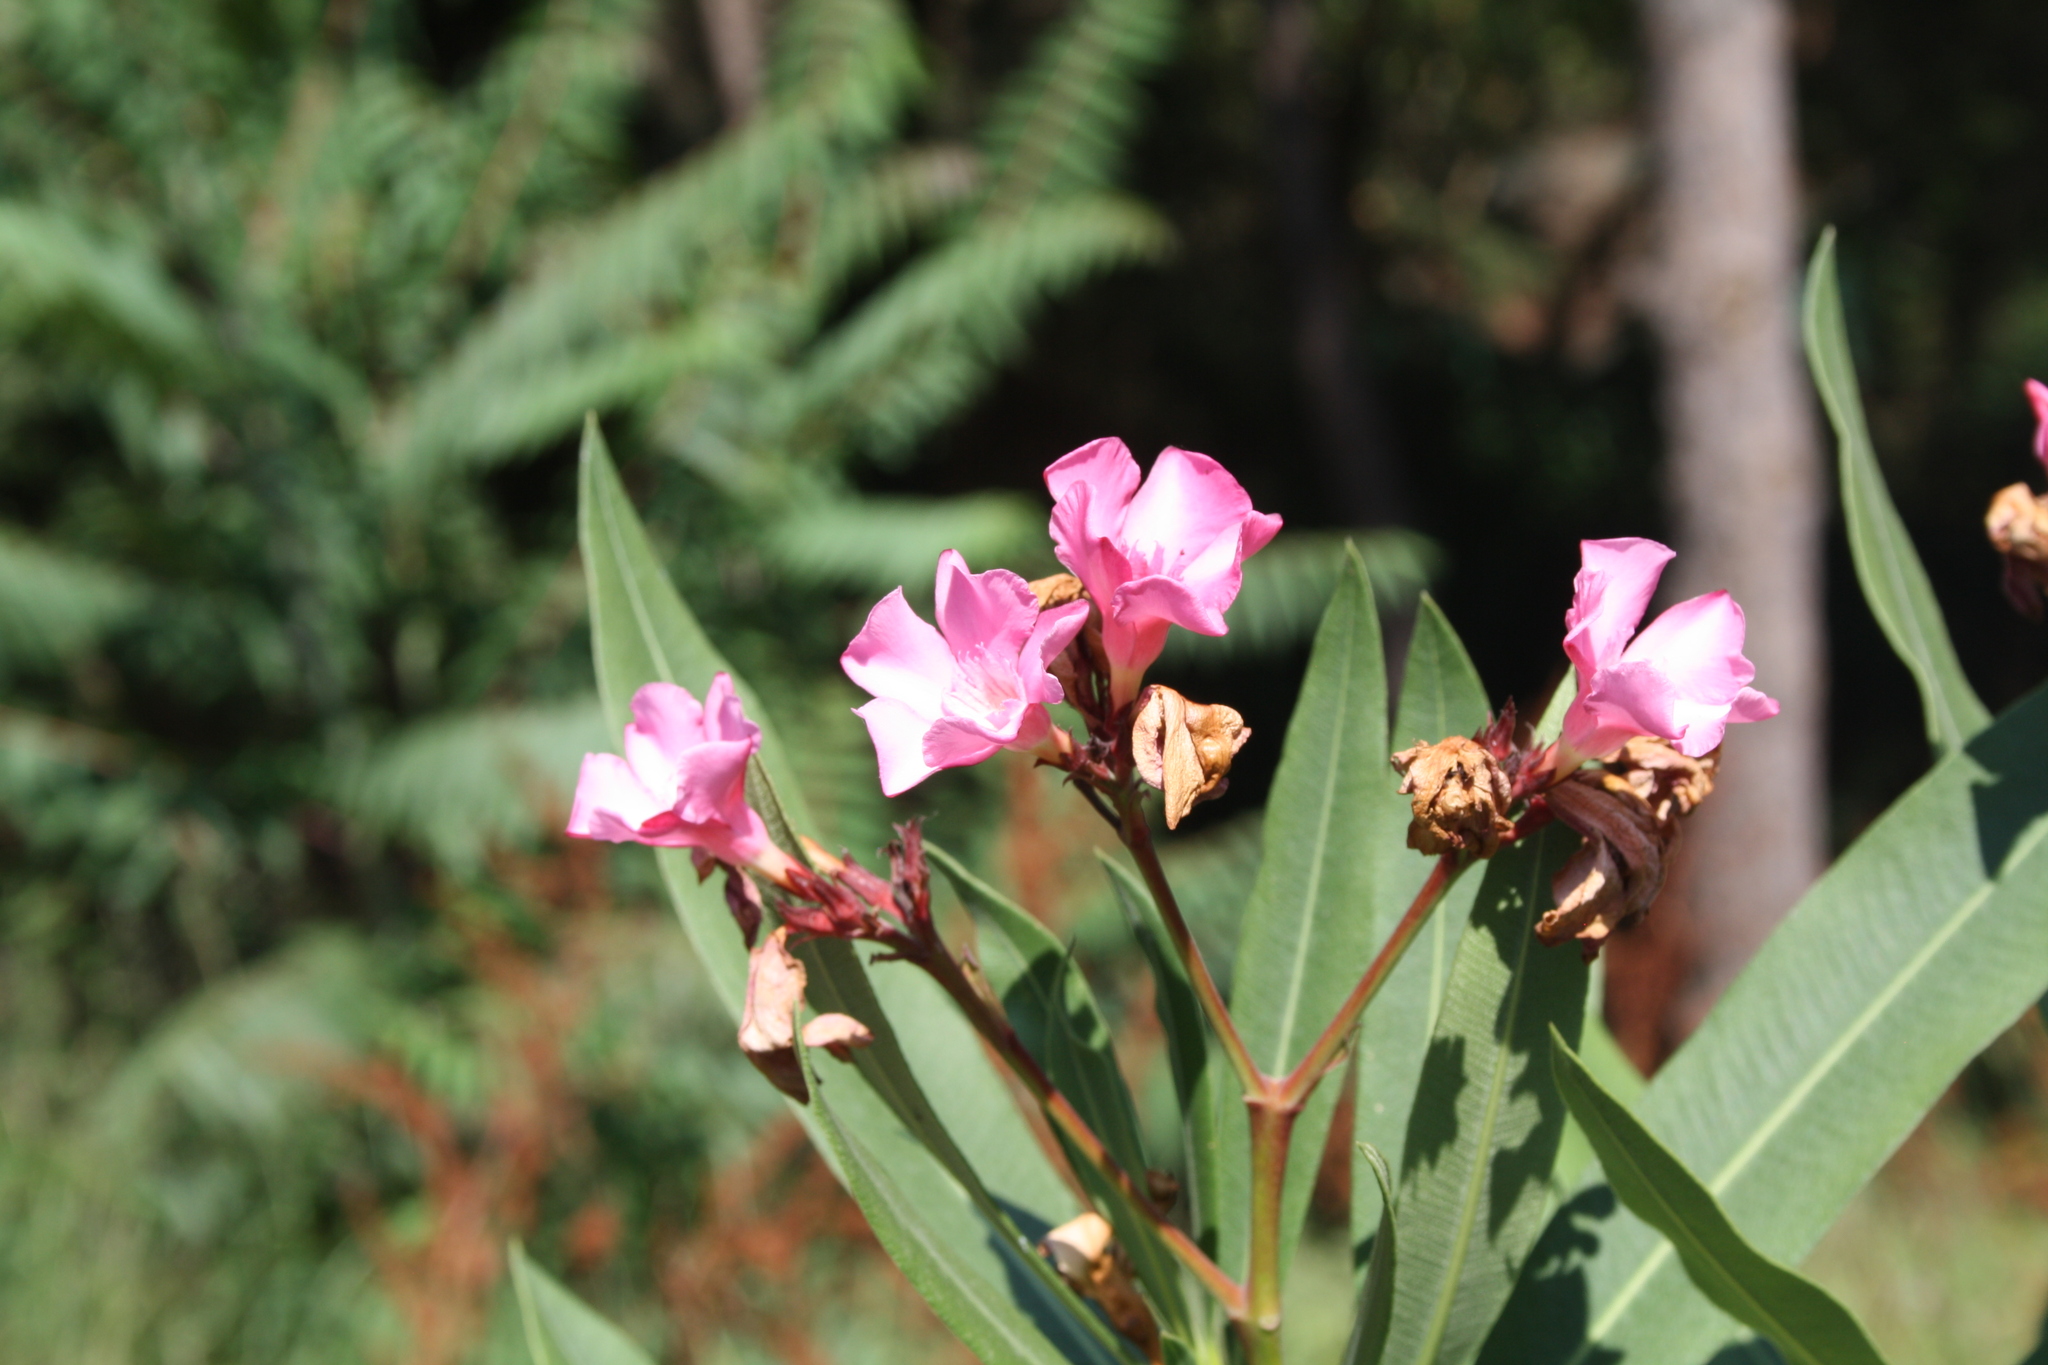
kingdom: Plantae
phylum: Tracheophyta
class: Magnoliopsida
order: Gentianales
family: Apocynaceae
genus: Nerium
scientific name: Nerium oleander
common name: Oleander
